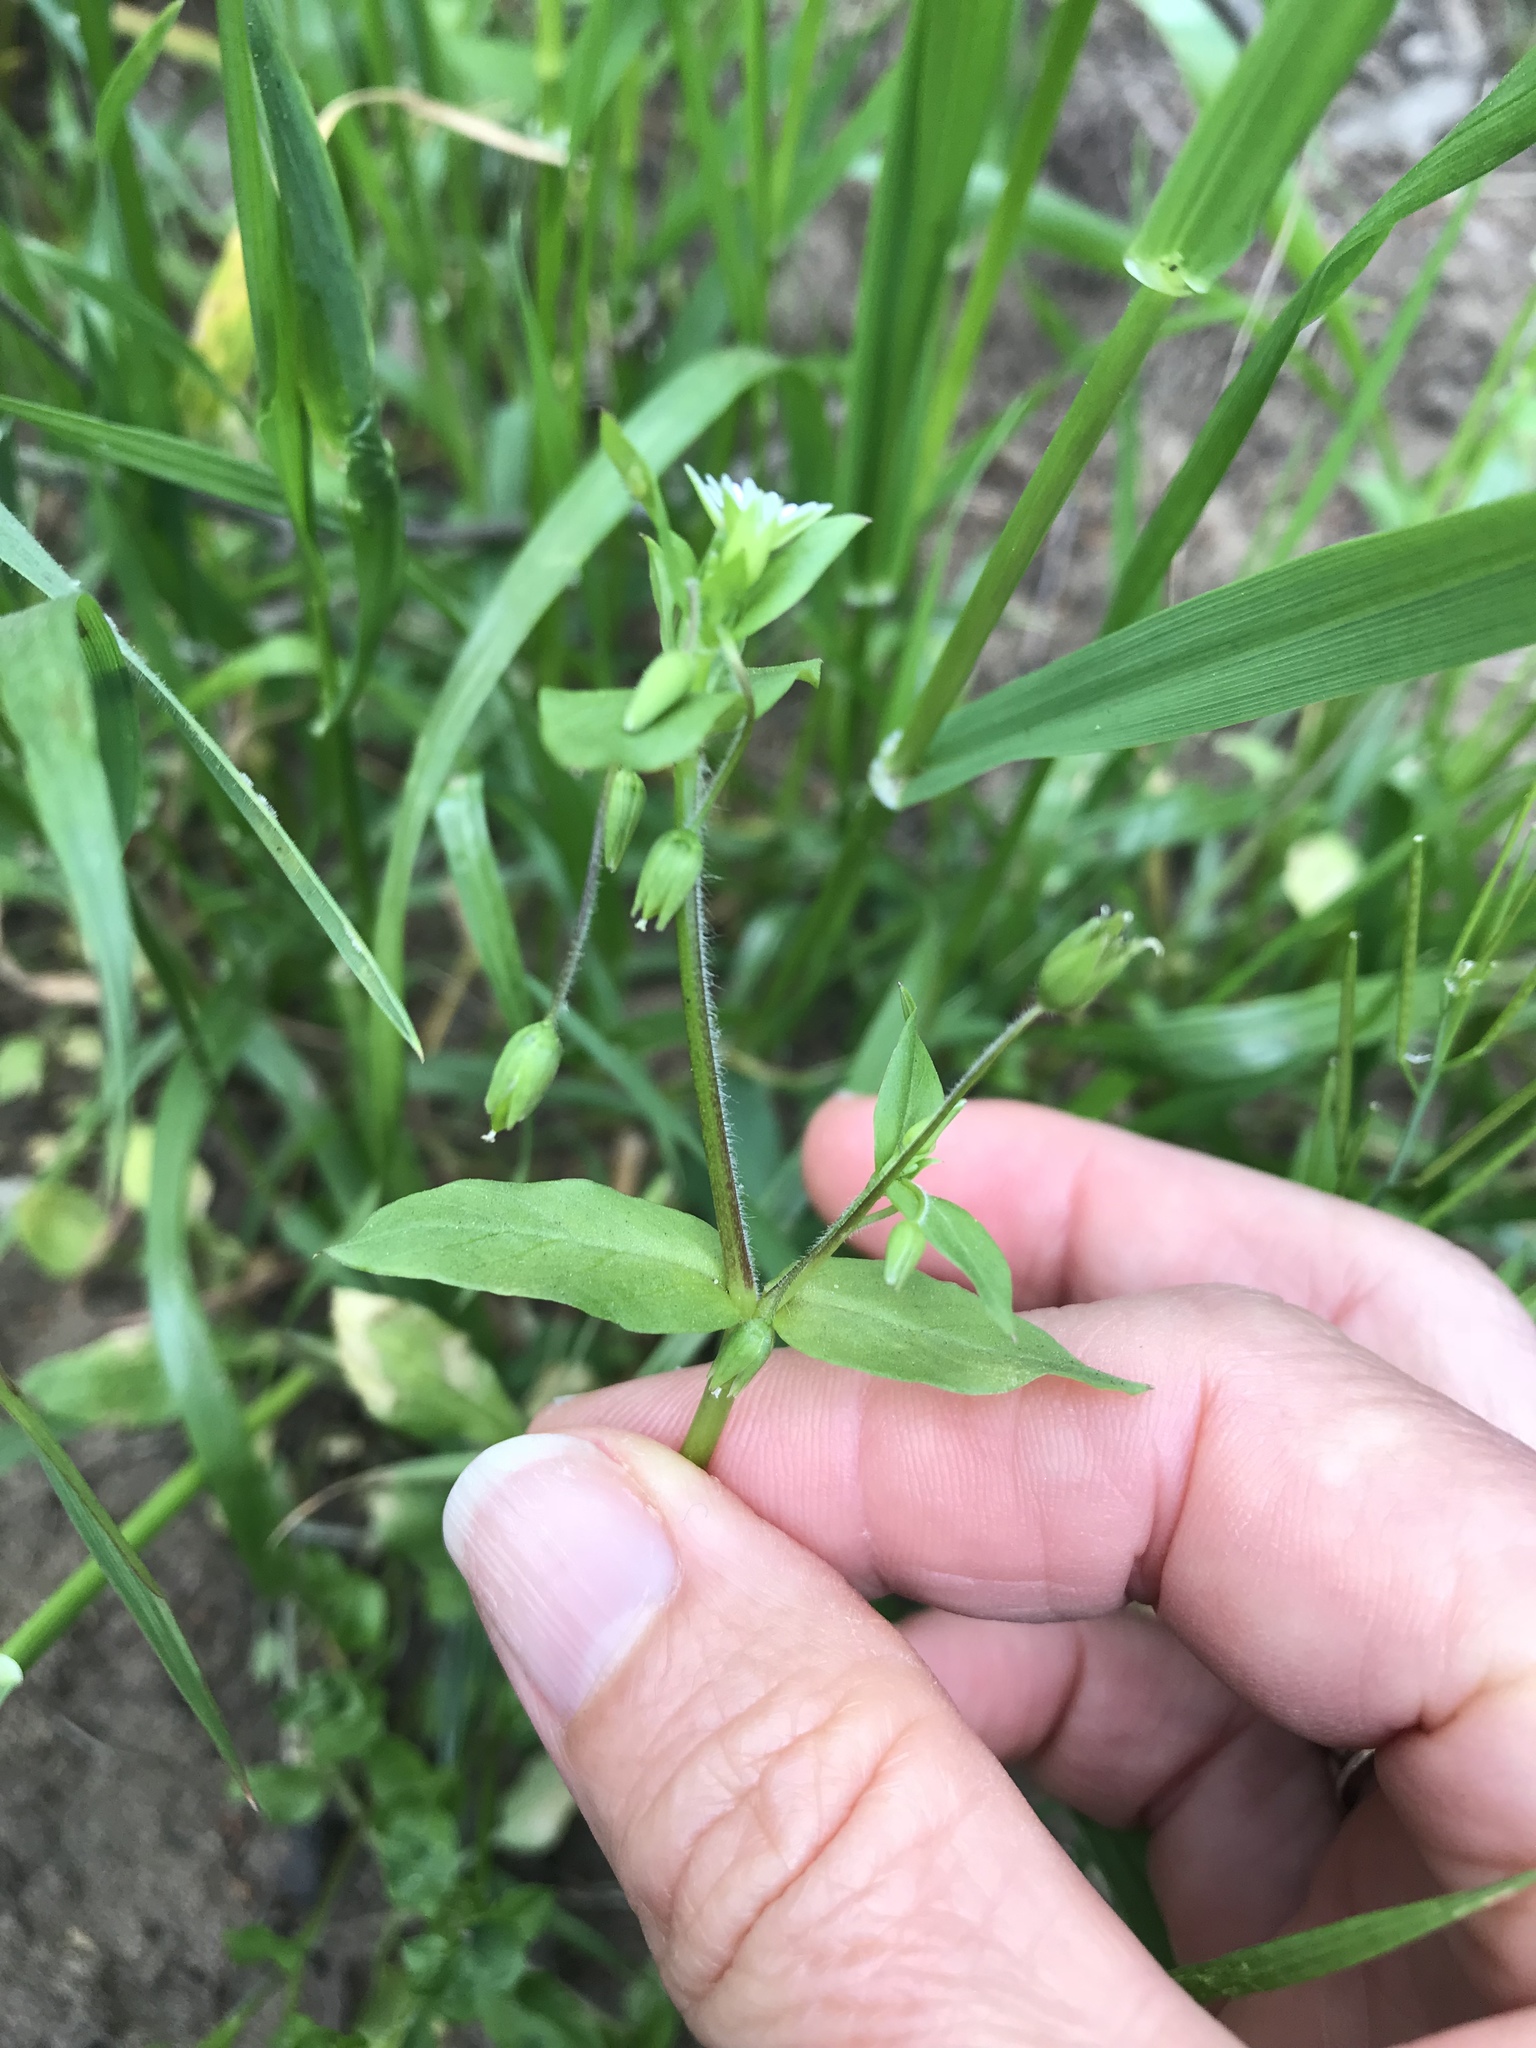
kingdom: Plantae
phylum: Tracheophyta
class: Magnoliopsida
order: Caryophyllales
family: Caryophyllaceae
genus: Stellaria
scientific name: Stellaria media
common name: Common chickweed
